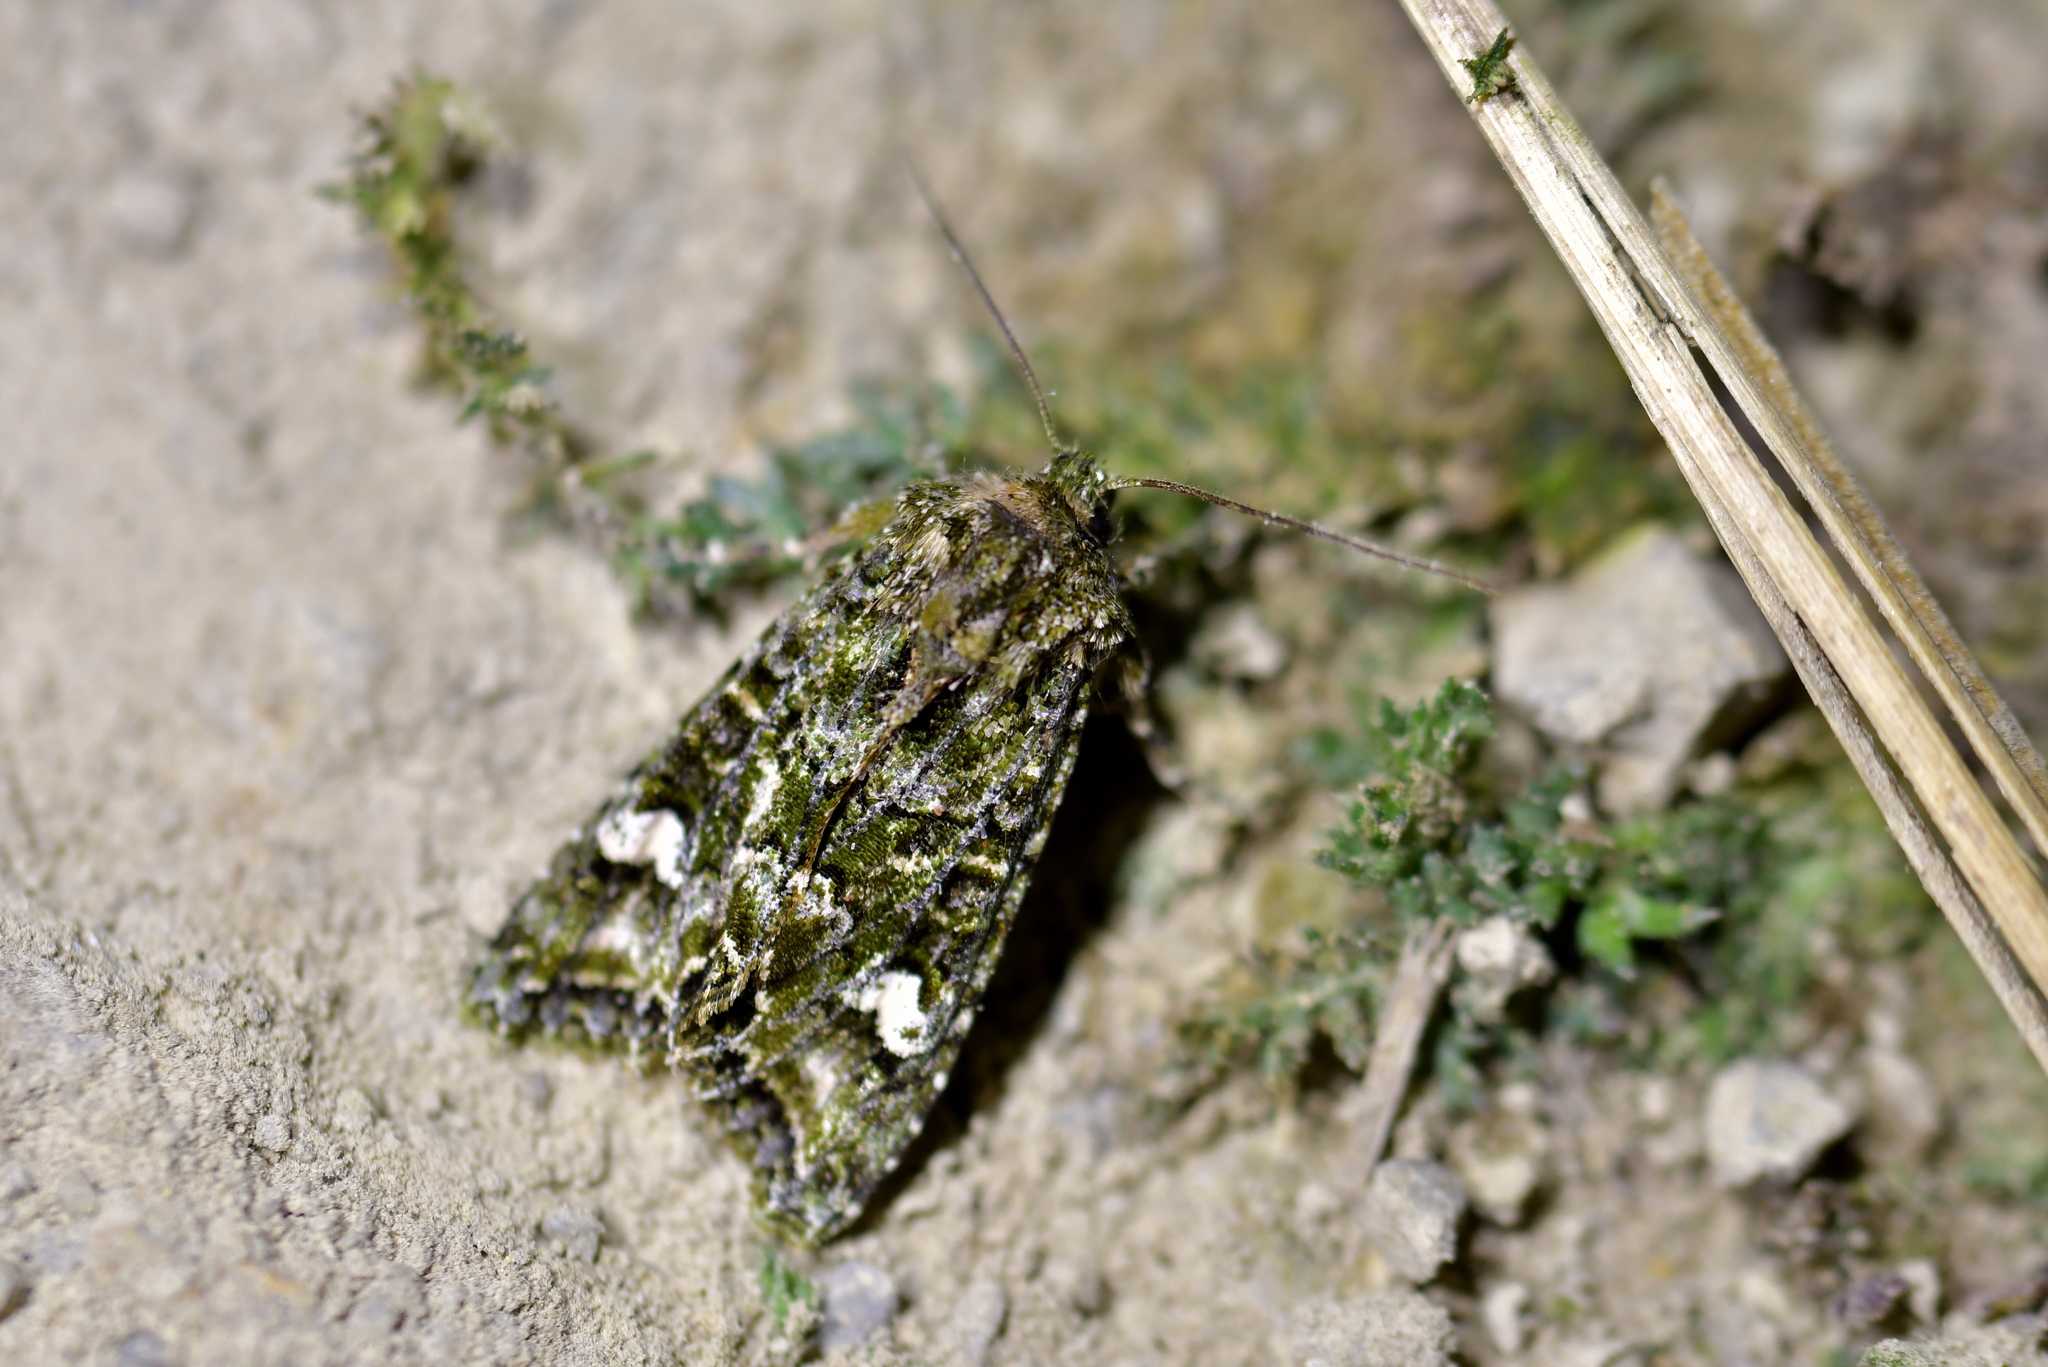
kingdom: Animalia
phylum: Arthropoda
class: Insecta
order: Lepidoptera
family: Noctuidae
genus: Ichneutica
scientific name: Ichneutica
